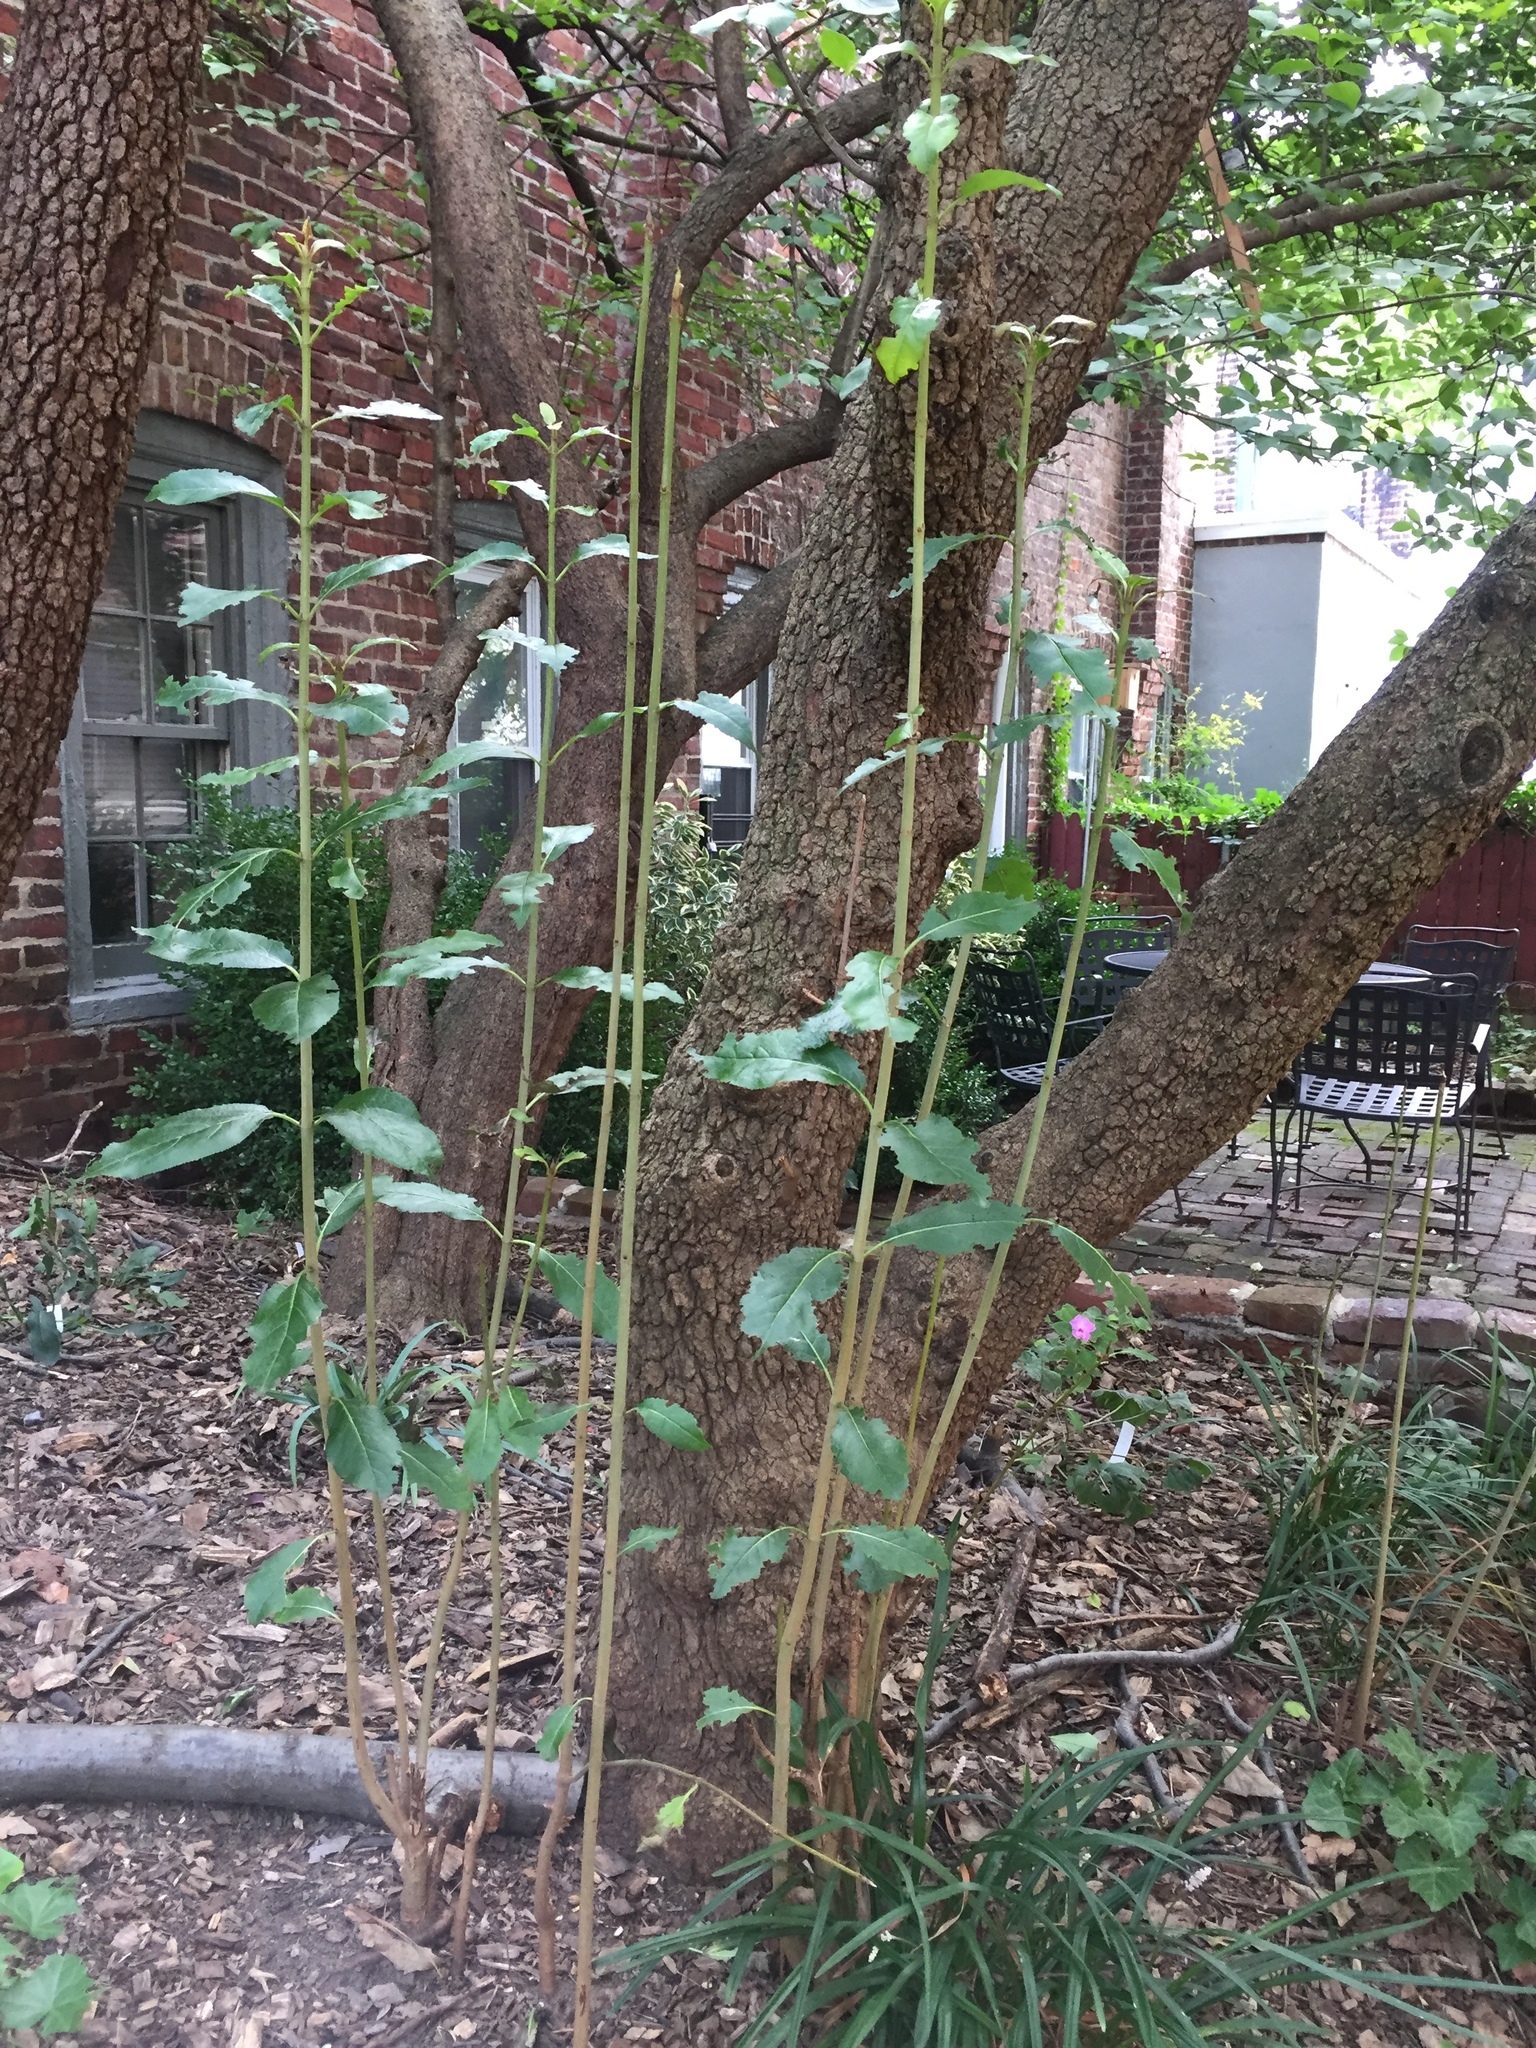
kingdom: Plantae
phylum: Tracheophyta
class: Magnoliopsida
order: Dipsacales
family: Viburnaceae
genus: Viburnum
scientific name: Viburnum prunifolium
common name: Black haw
